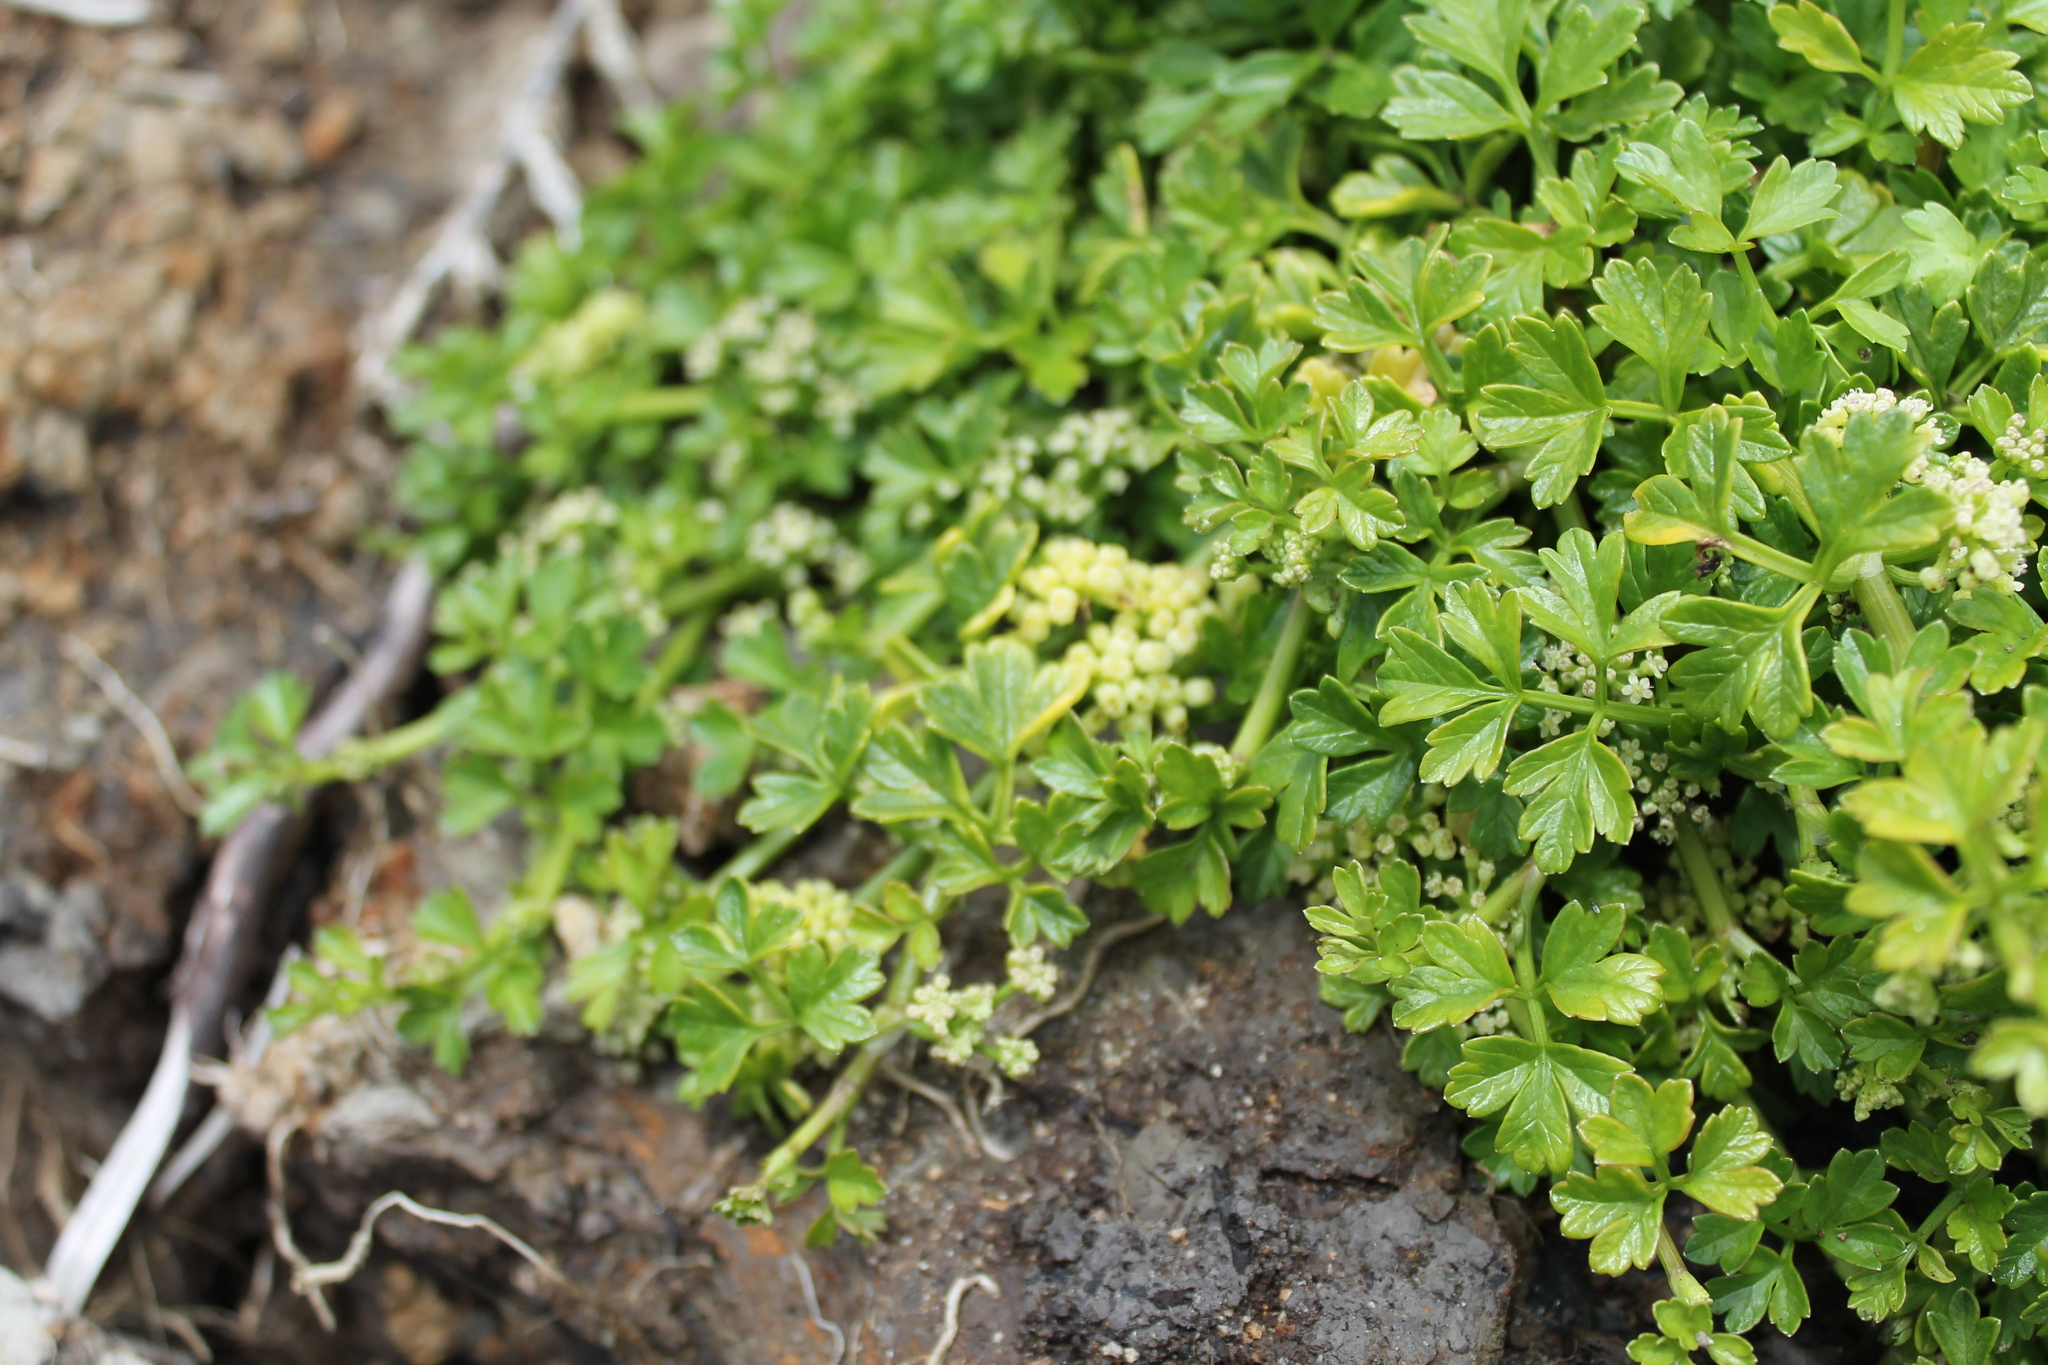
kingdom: Plantae
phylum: Tracheophyta
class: Magnoliopsida
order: Apiales
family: Apiaceae
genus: Apium
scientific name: Apium prostratum
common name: Prostrate marshwort
